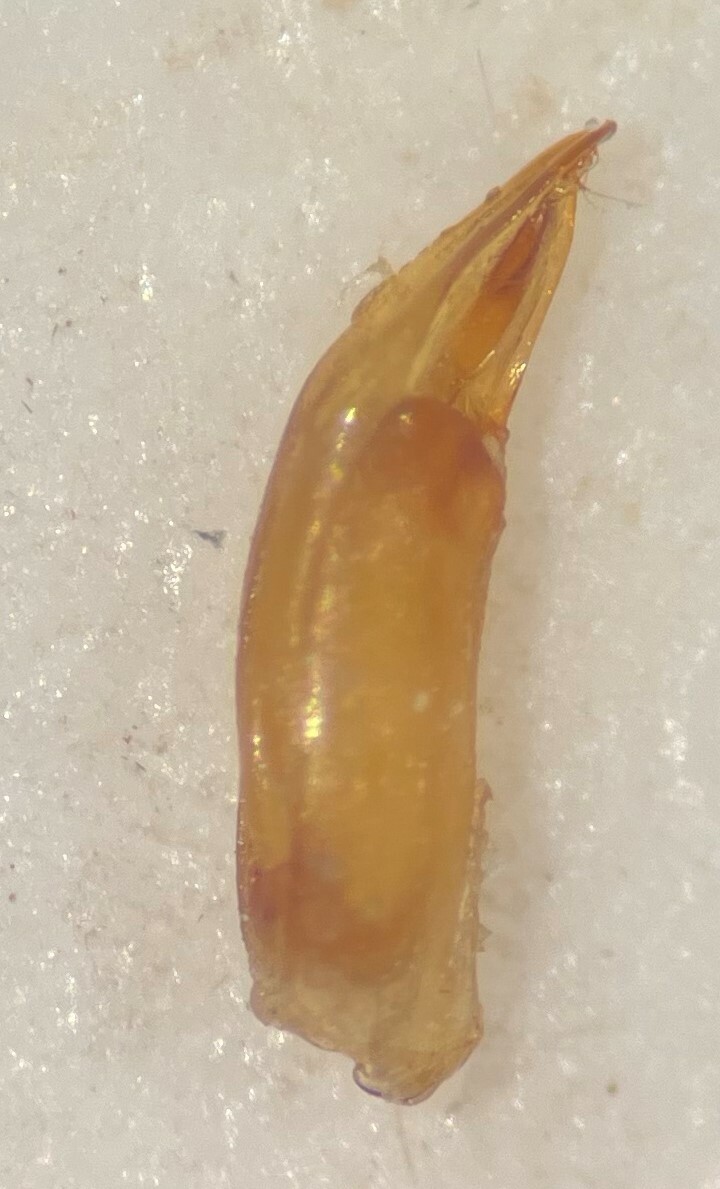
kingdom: Animalia
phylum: Arthropoda
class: Insecta
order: Coleoptera
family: Hydrophilidae
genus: Berosus
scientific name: Berosus infuscatus
